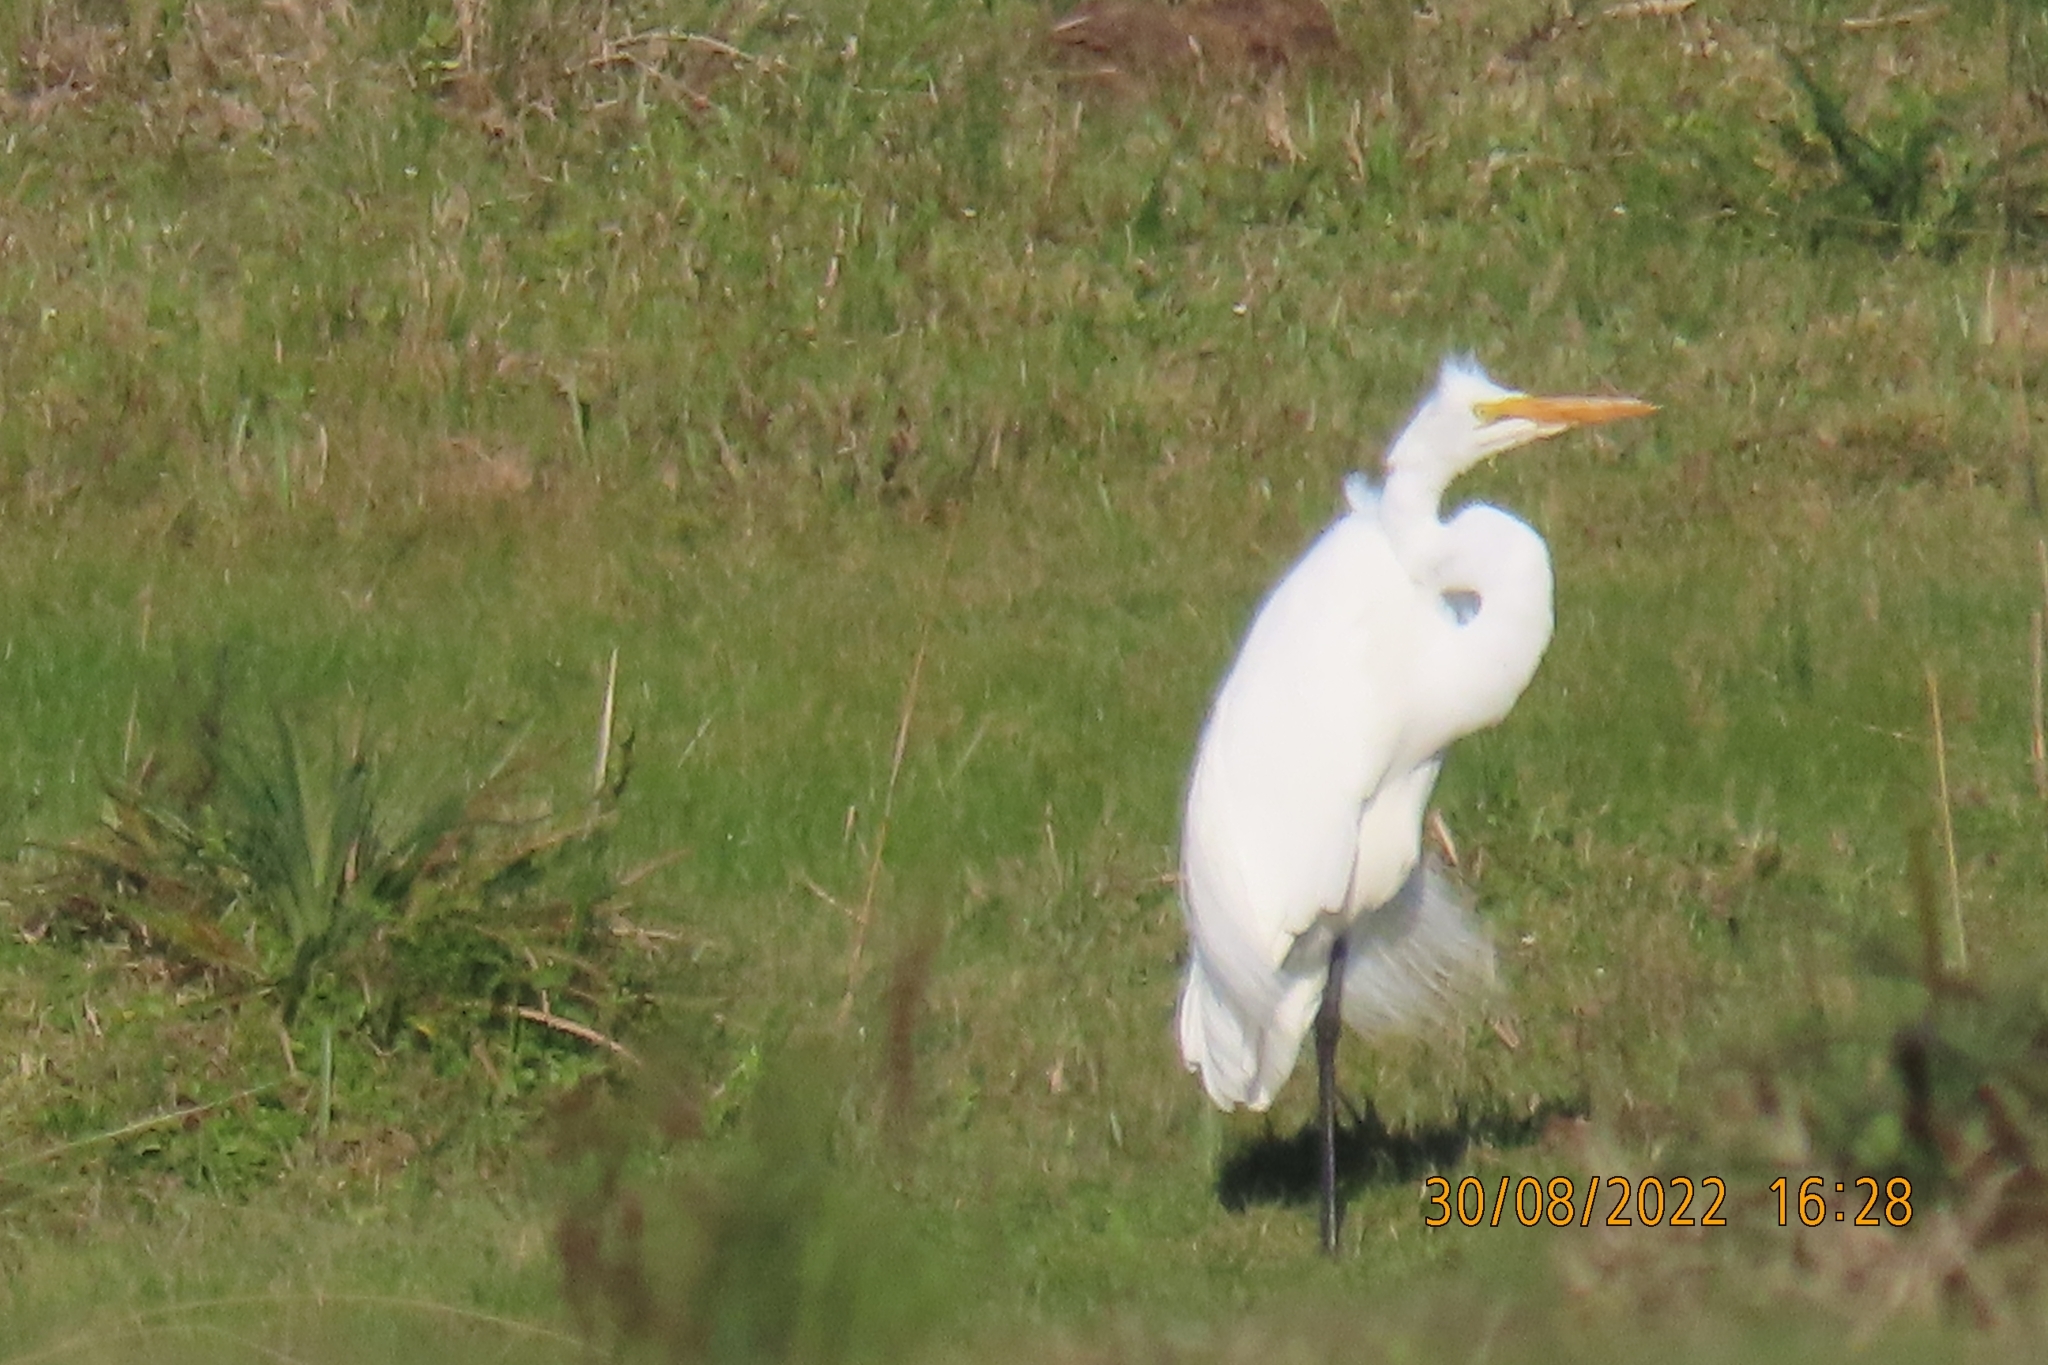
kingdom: Animalia
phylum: Chordata
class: Aves
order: Pelecaniformes
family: Ardeidae
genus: Ardea
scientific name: Ardea alba
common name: Great egret
